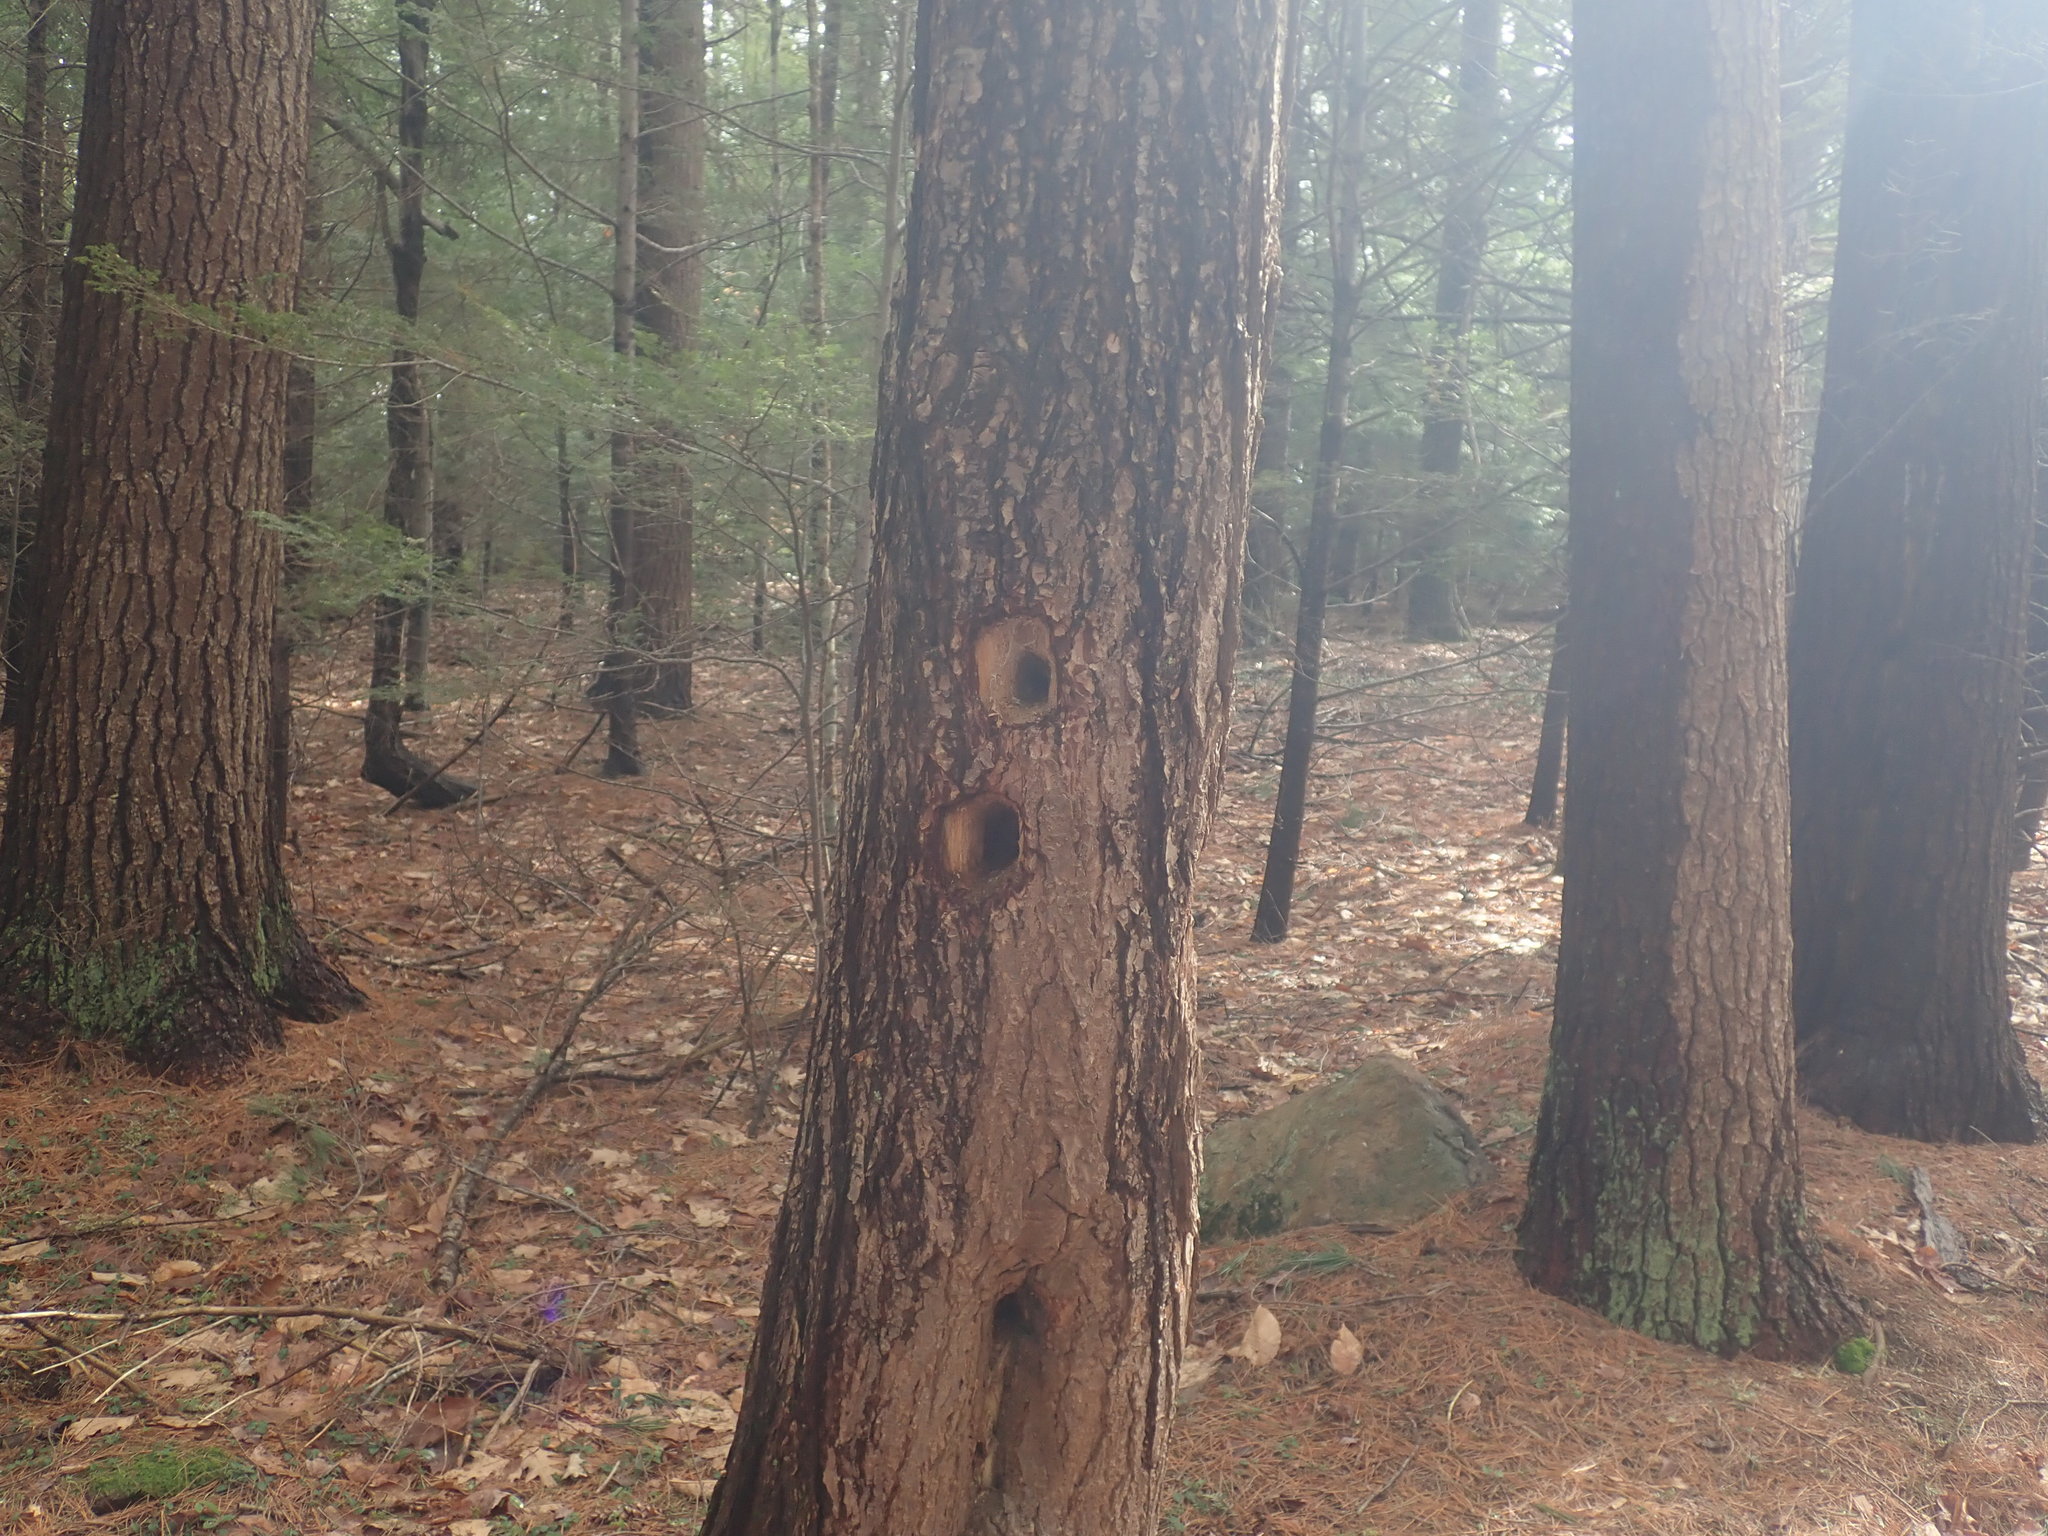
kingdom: Animalia
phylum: Chordata
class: Aves
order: Piciformes
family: Picidae
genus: Dryocopus
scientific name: Dryocopus pileatus
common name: Pileated woodpecker
